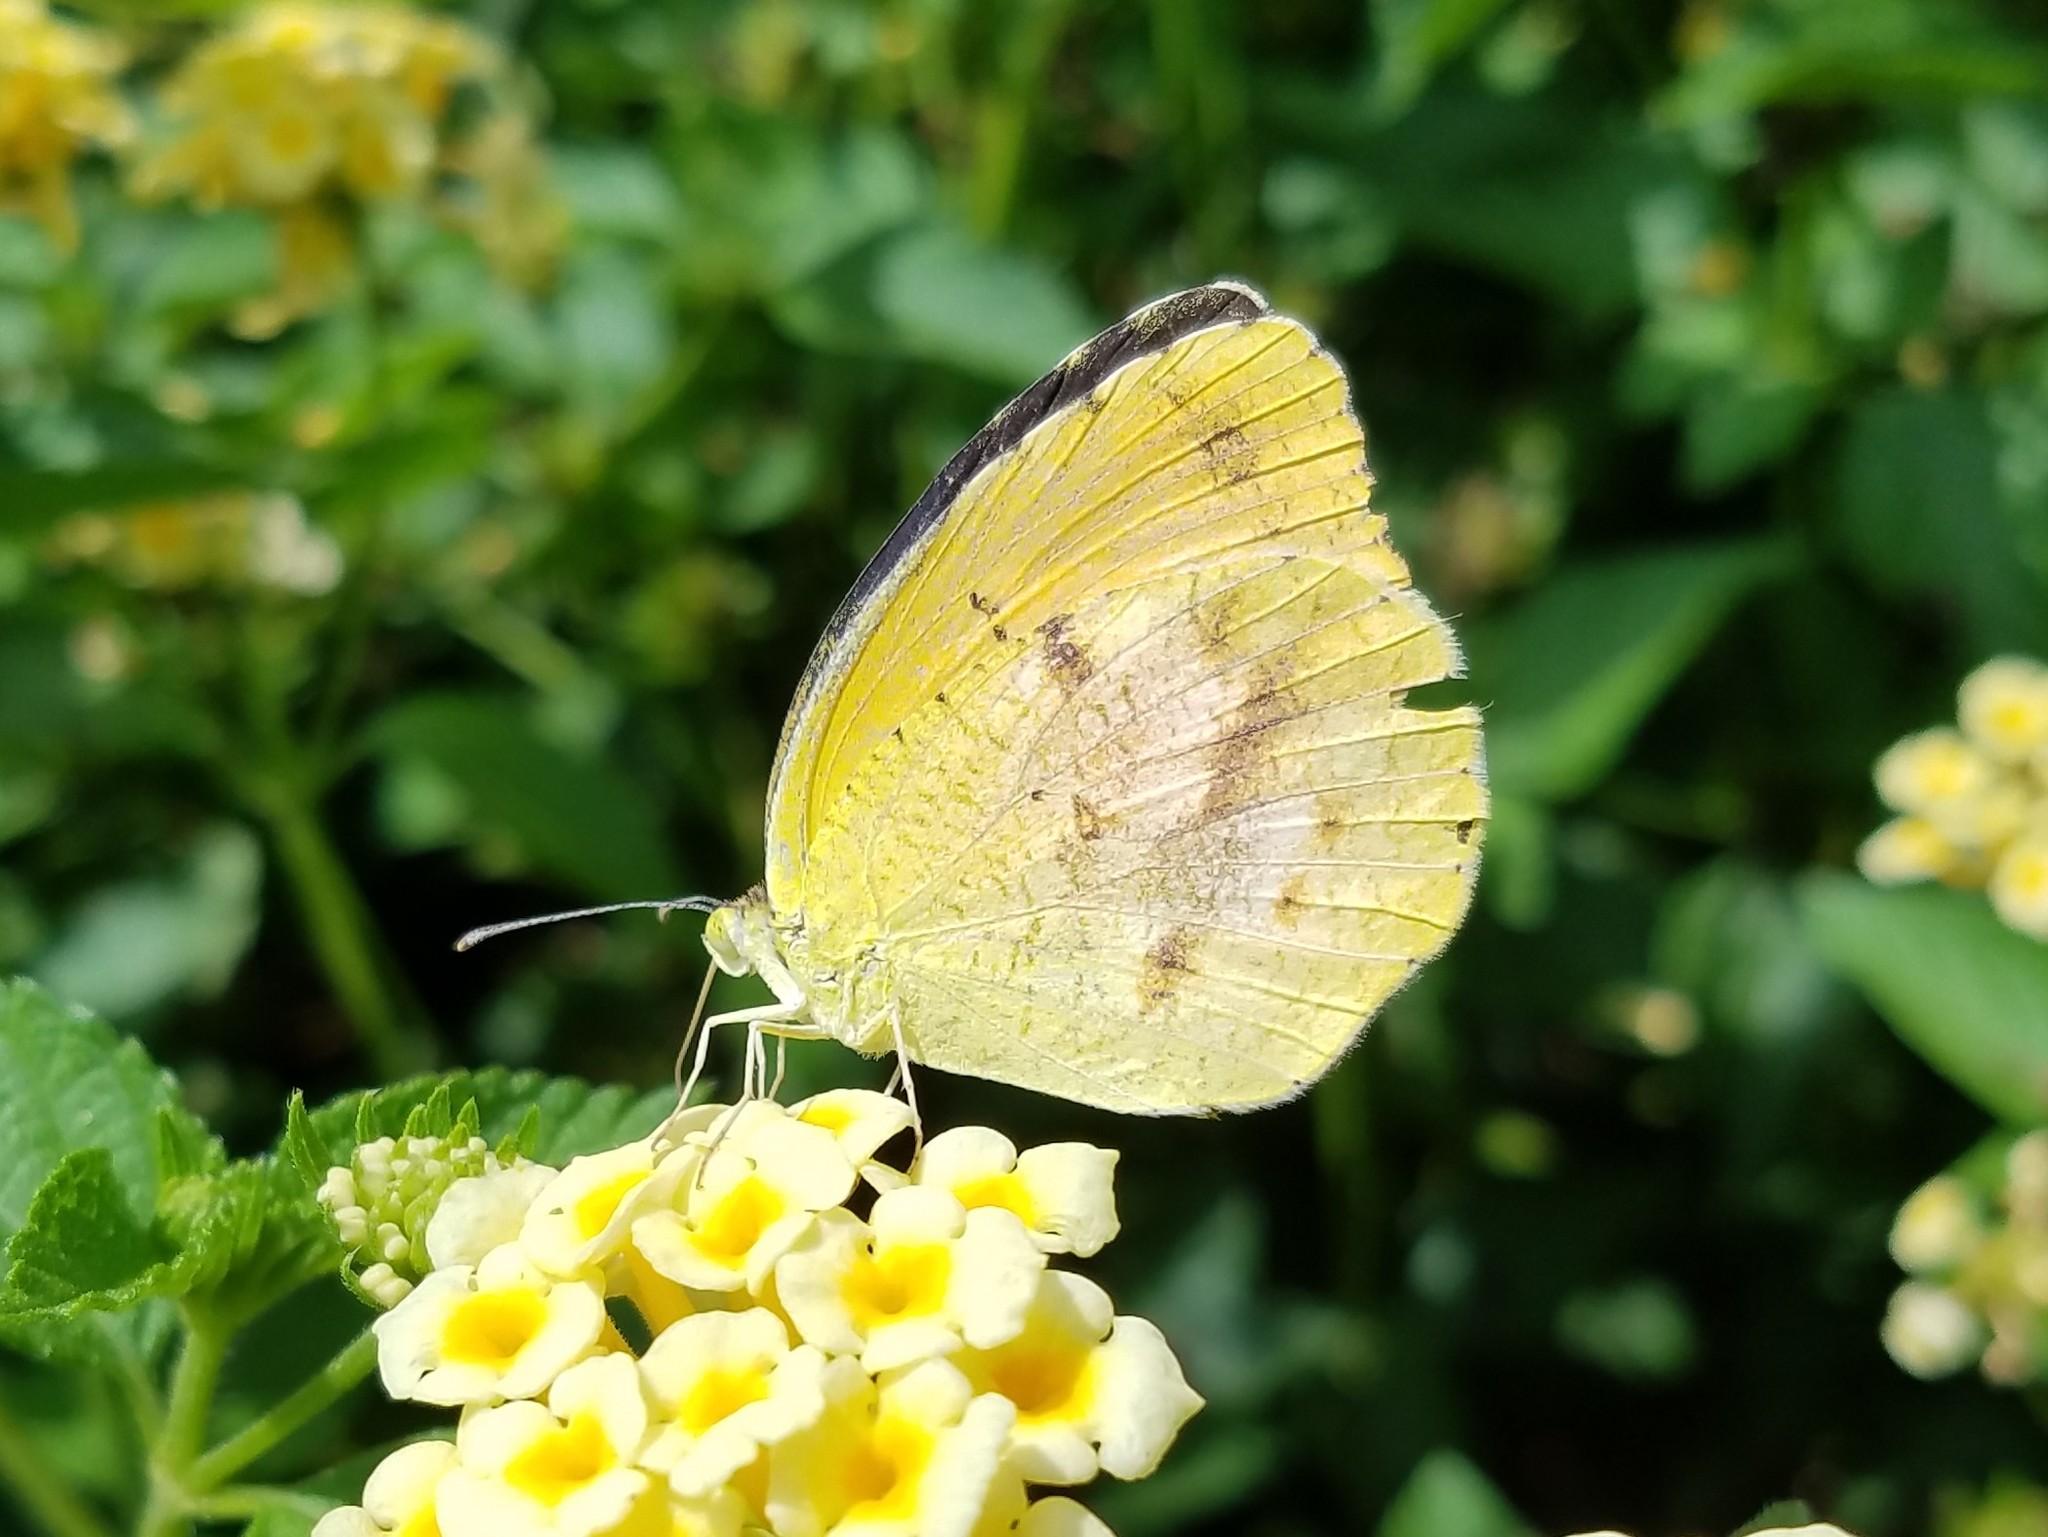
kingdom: Animalia
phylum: Arthropoda
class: Insecta
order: Lepidoptera
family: Pieridae
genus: Abaeis
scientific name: Abaeis nicippe
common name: Sleepy orange
